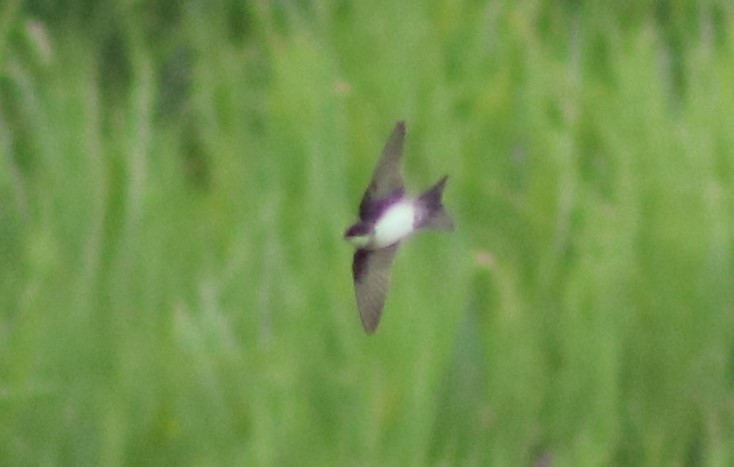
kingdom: Animalia
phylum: Chordata
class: Aves
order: Passeriformes
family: Hirundinidae
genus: Notiochelidon
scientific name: Notiochelidon cyanoleuca
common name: Blue-and-white swallow
